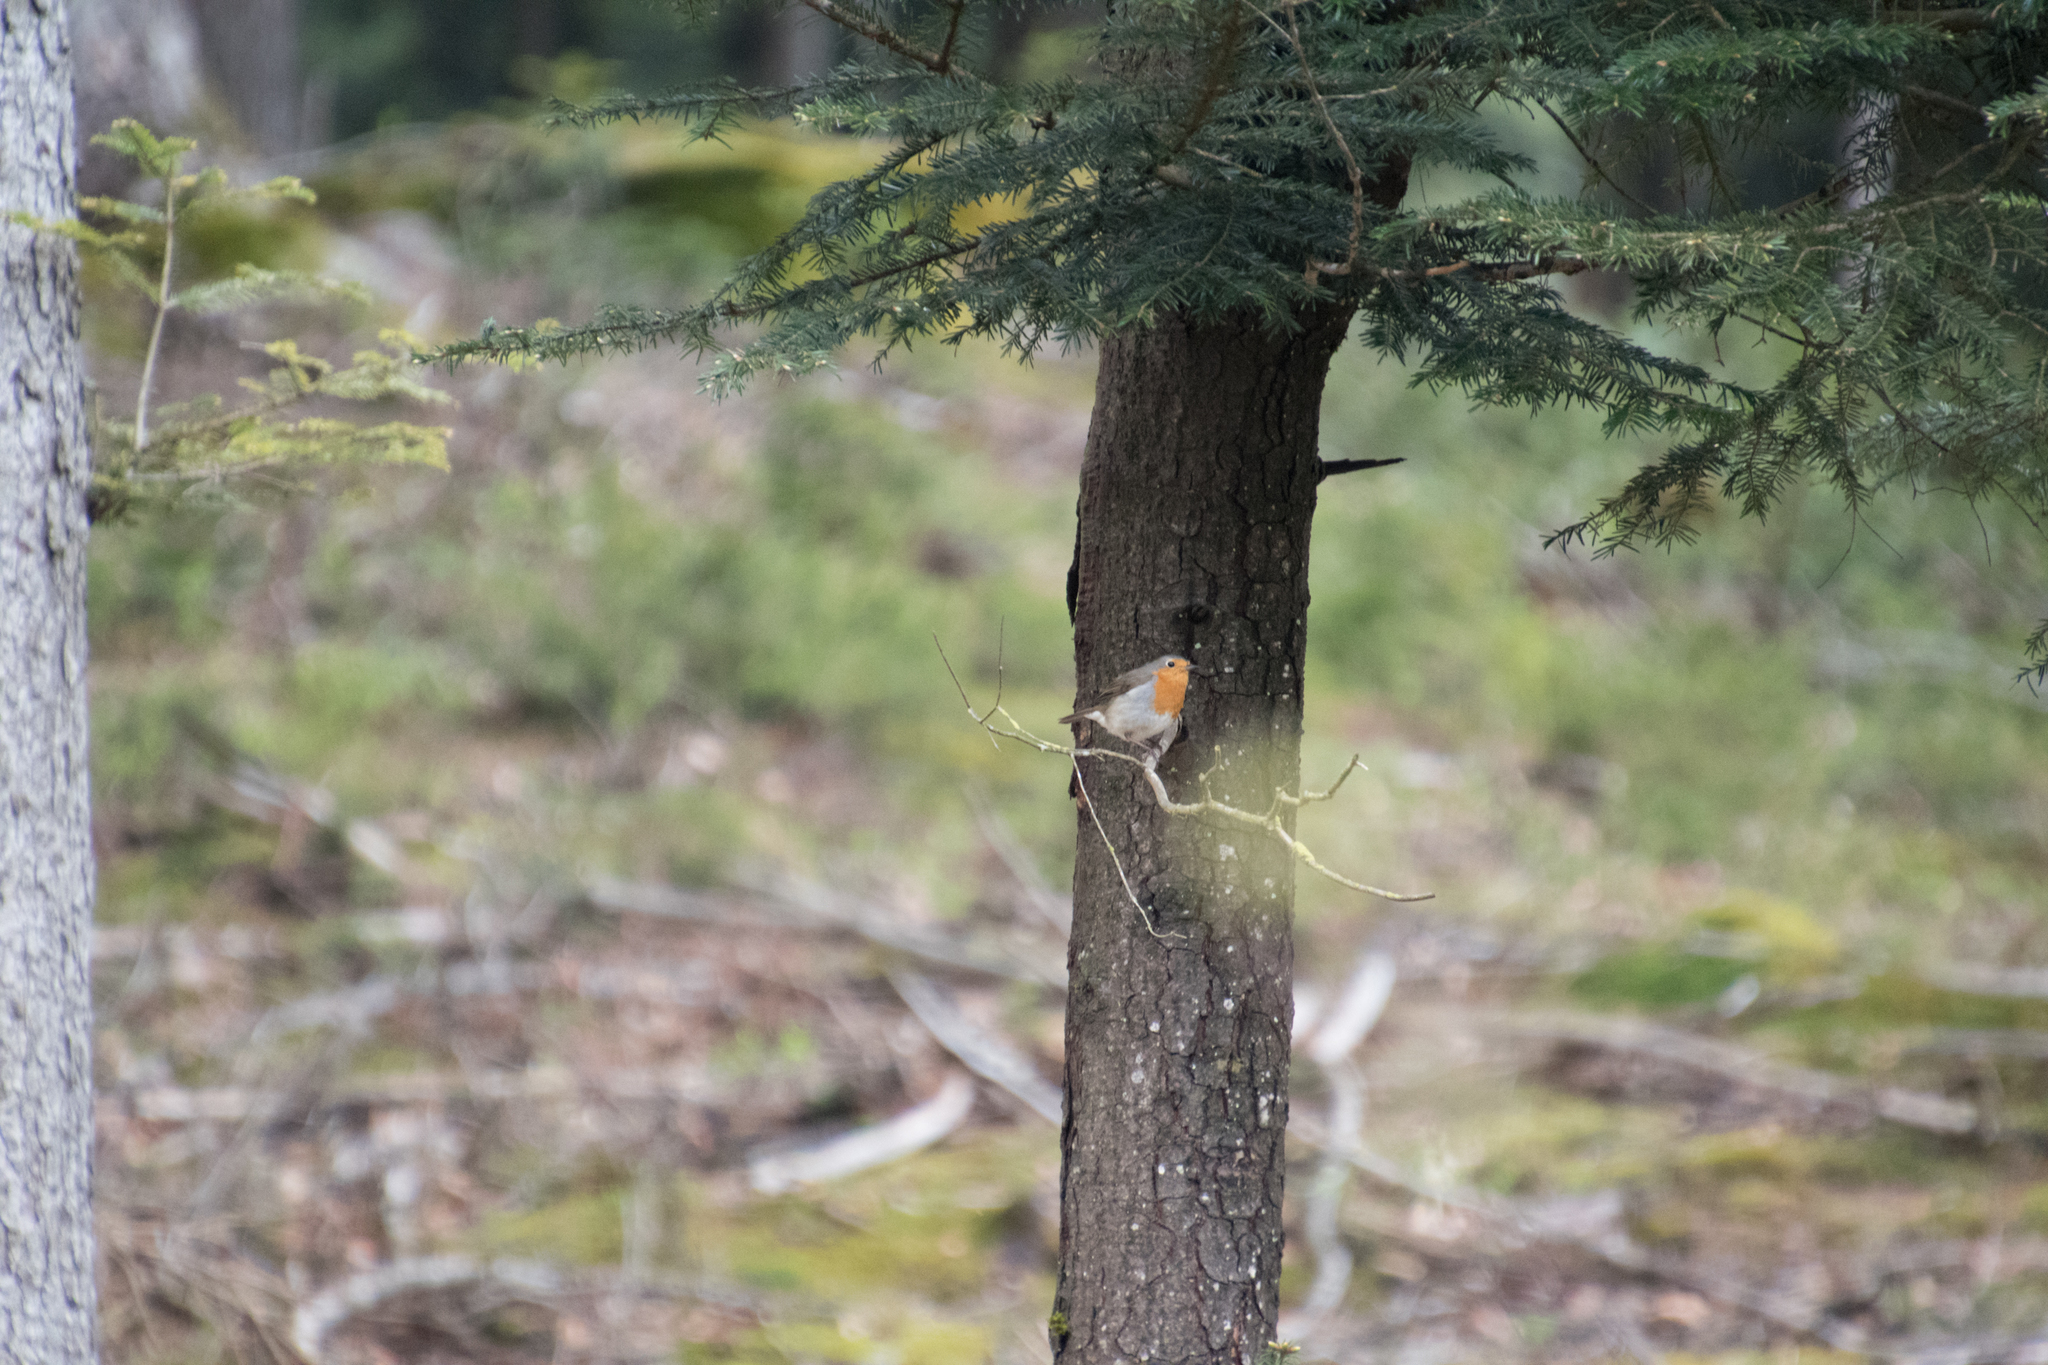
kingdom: Animalia
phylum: Chordata
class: Aves
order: Passeriformes
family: Muscicapidae
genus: Erithacus
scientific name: Erithacus rubecula
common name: European robin
